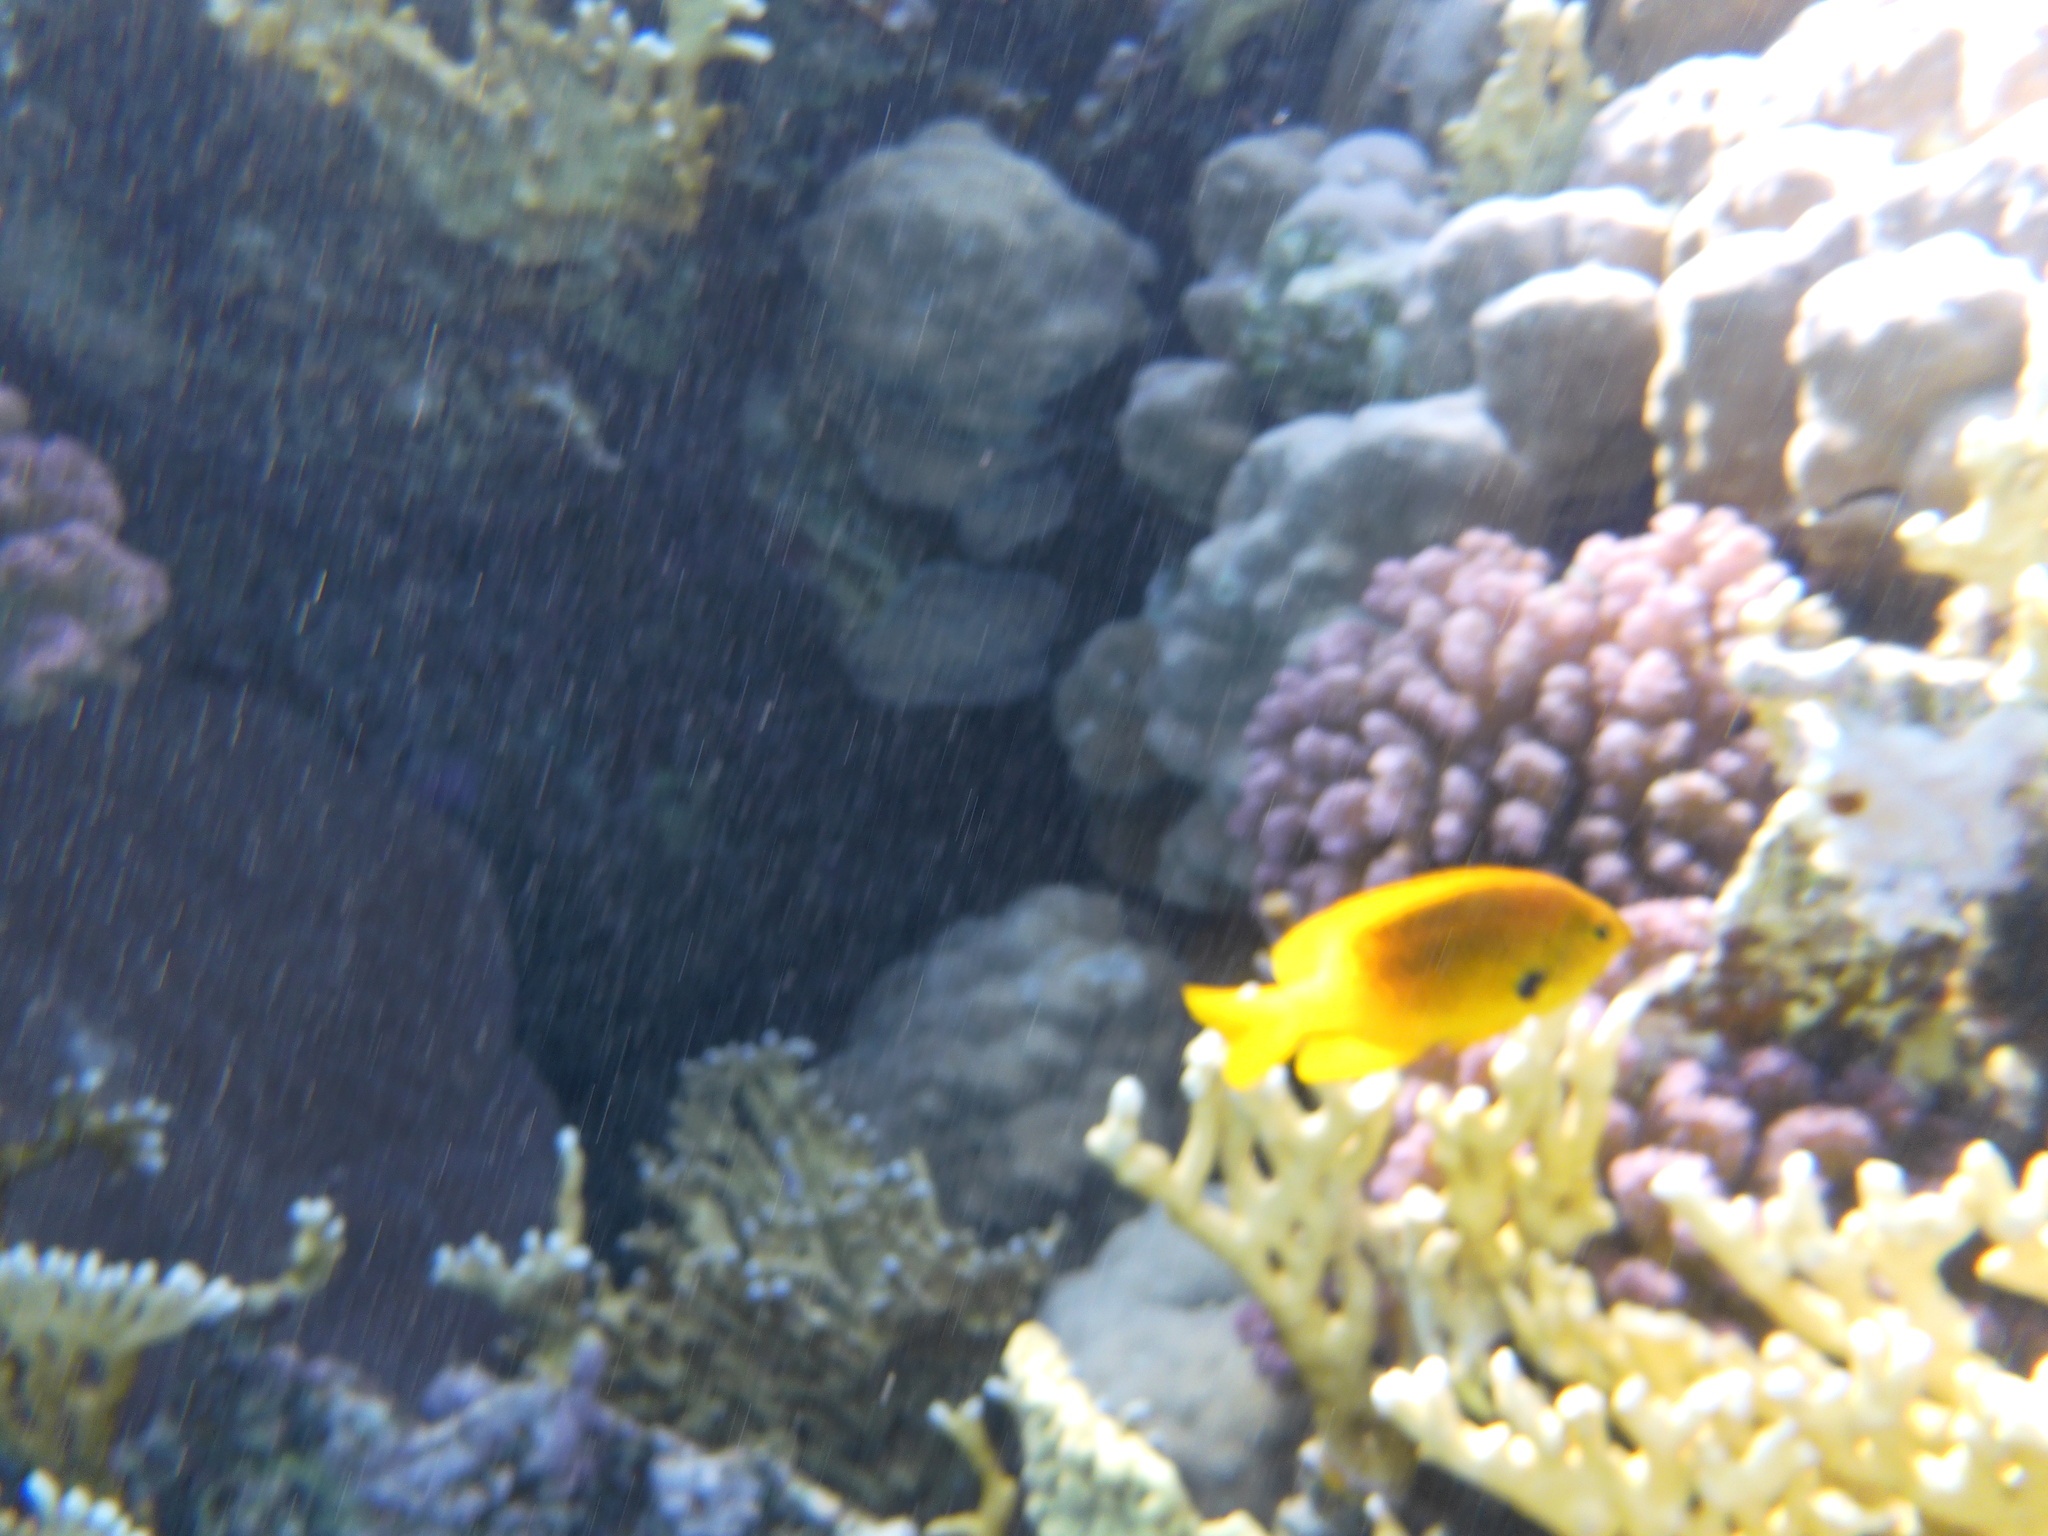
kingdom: Animalia
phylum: Chordata
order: Perciformes
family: Pomacentridae
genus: Pomacentrus
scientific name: Pomacentrus sulfureus
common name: Sulfur damsel
